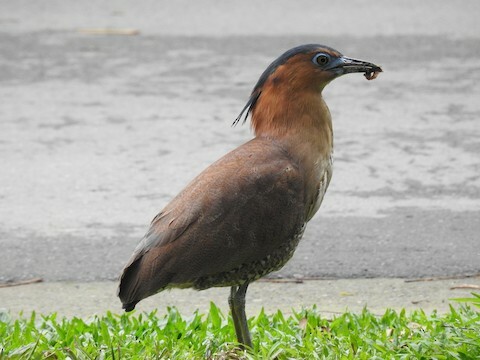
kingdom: Animalia
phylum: Chordata
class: Aves
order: Pelecaniformes
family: Ardeidae
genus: Gorsachius
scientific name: Gorsachius melanolophus
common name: Malayan night heron
